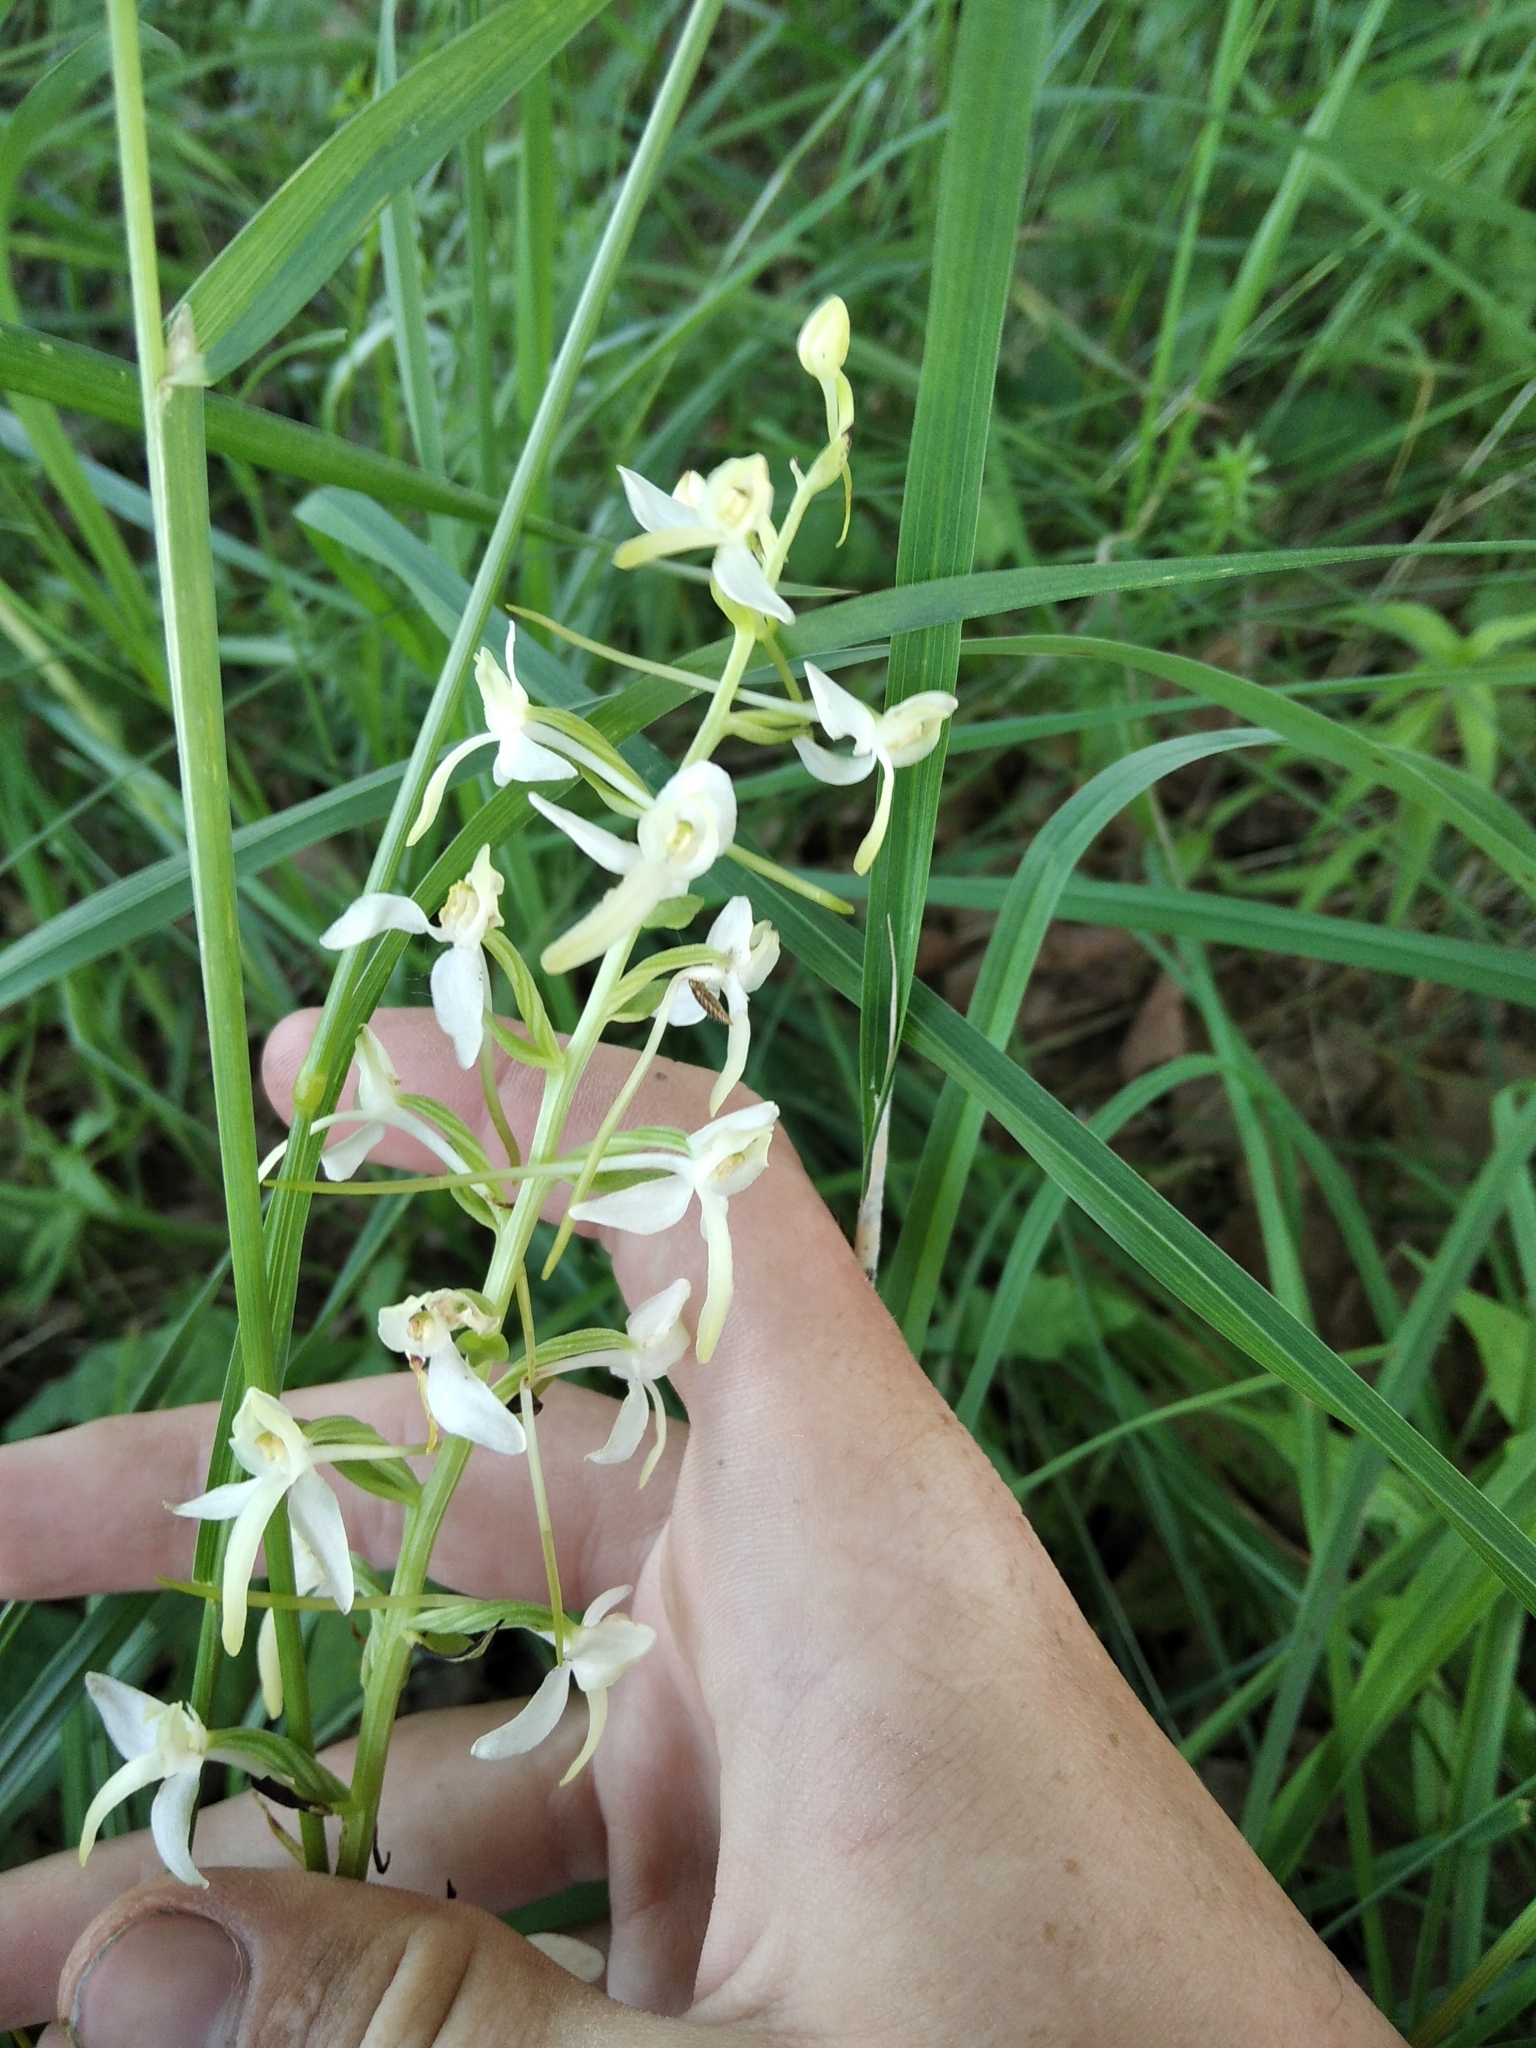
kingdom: Plantae
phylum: Tracheophyta
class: Liliopsida
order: Asparagales
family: Orchidaceae
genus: Platanthera
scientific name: Platanthera bifolia
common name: Lesser butterfly-orchid
